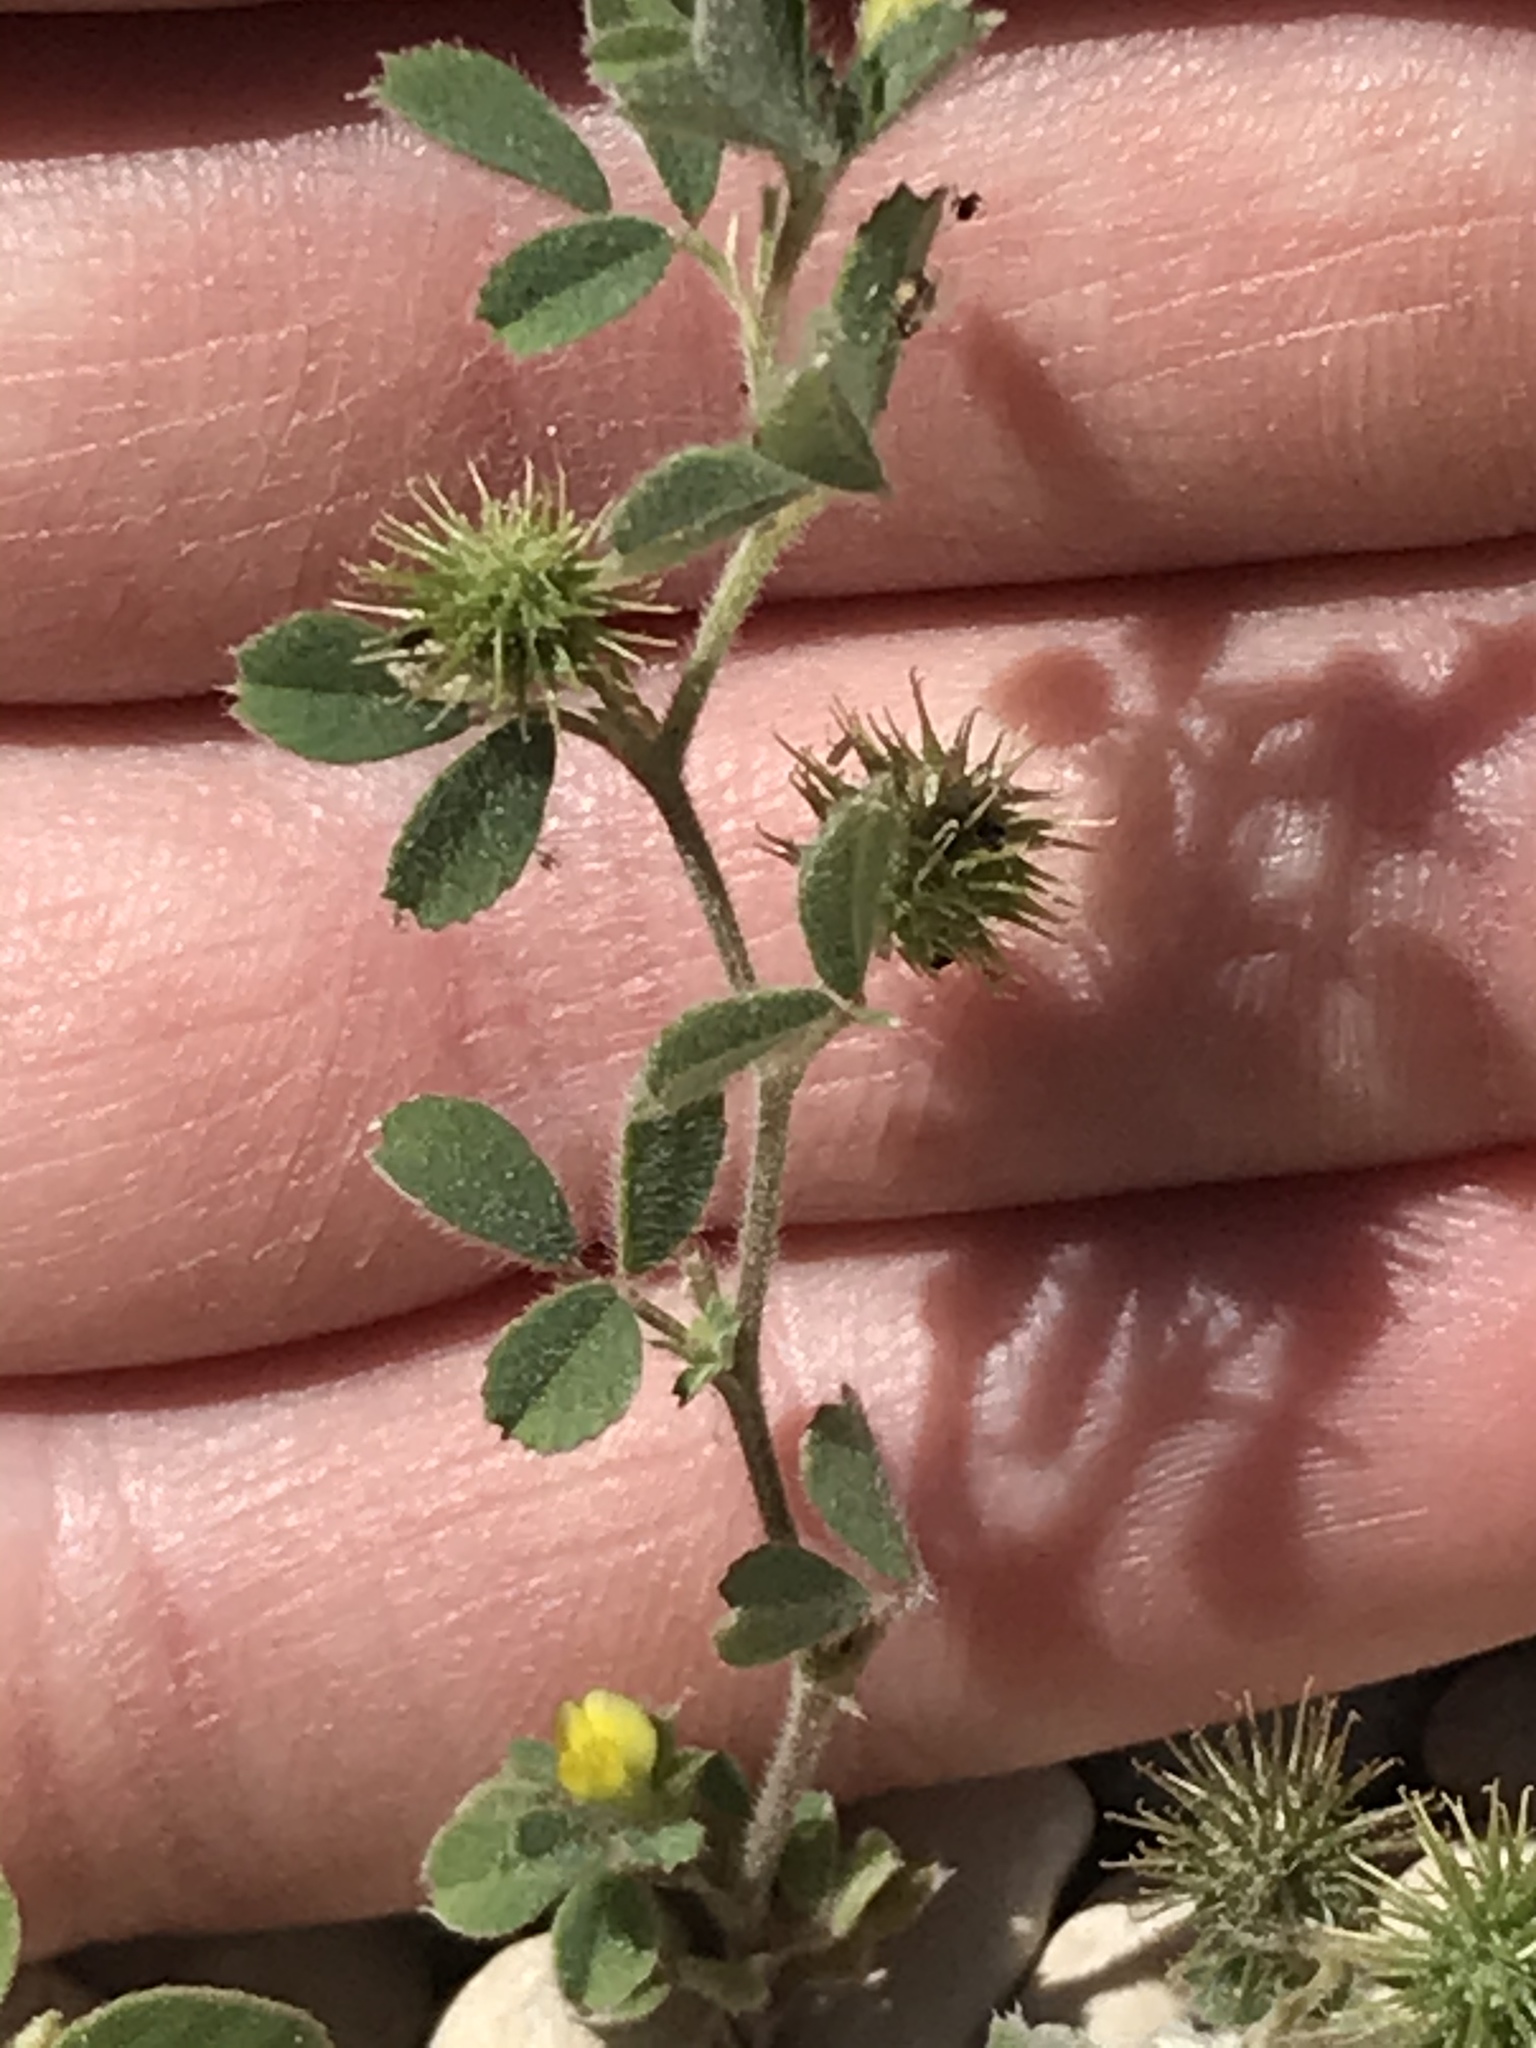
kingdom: Plantae
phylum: Tracheophyta
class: Magnoliopsida
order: Fabales
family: Fabaceae
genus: Medicago
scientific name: Medicago polymorpha
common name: Burclover
